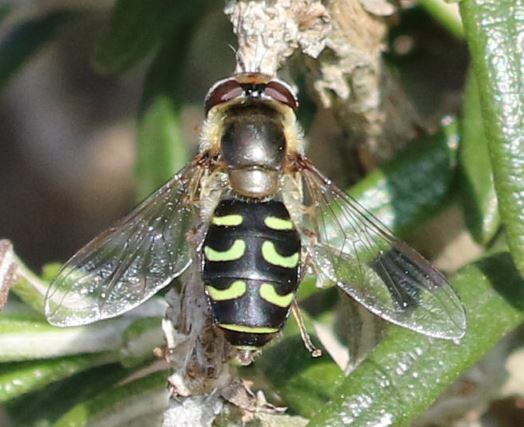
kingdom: Animalia
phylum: Arthropoda
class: Insecta
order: Diptera
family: Syrphidae
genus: Scaeva
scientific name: Scaeva selenitica
